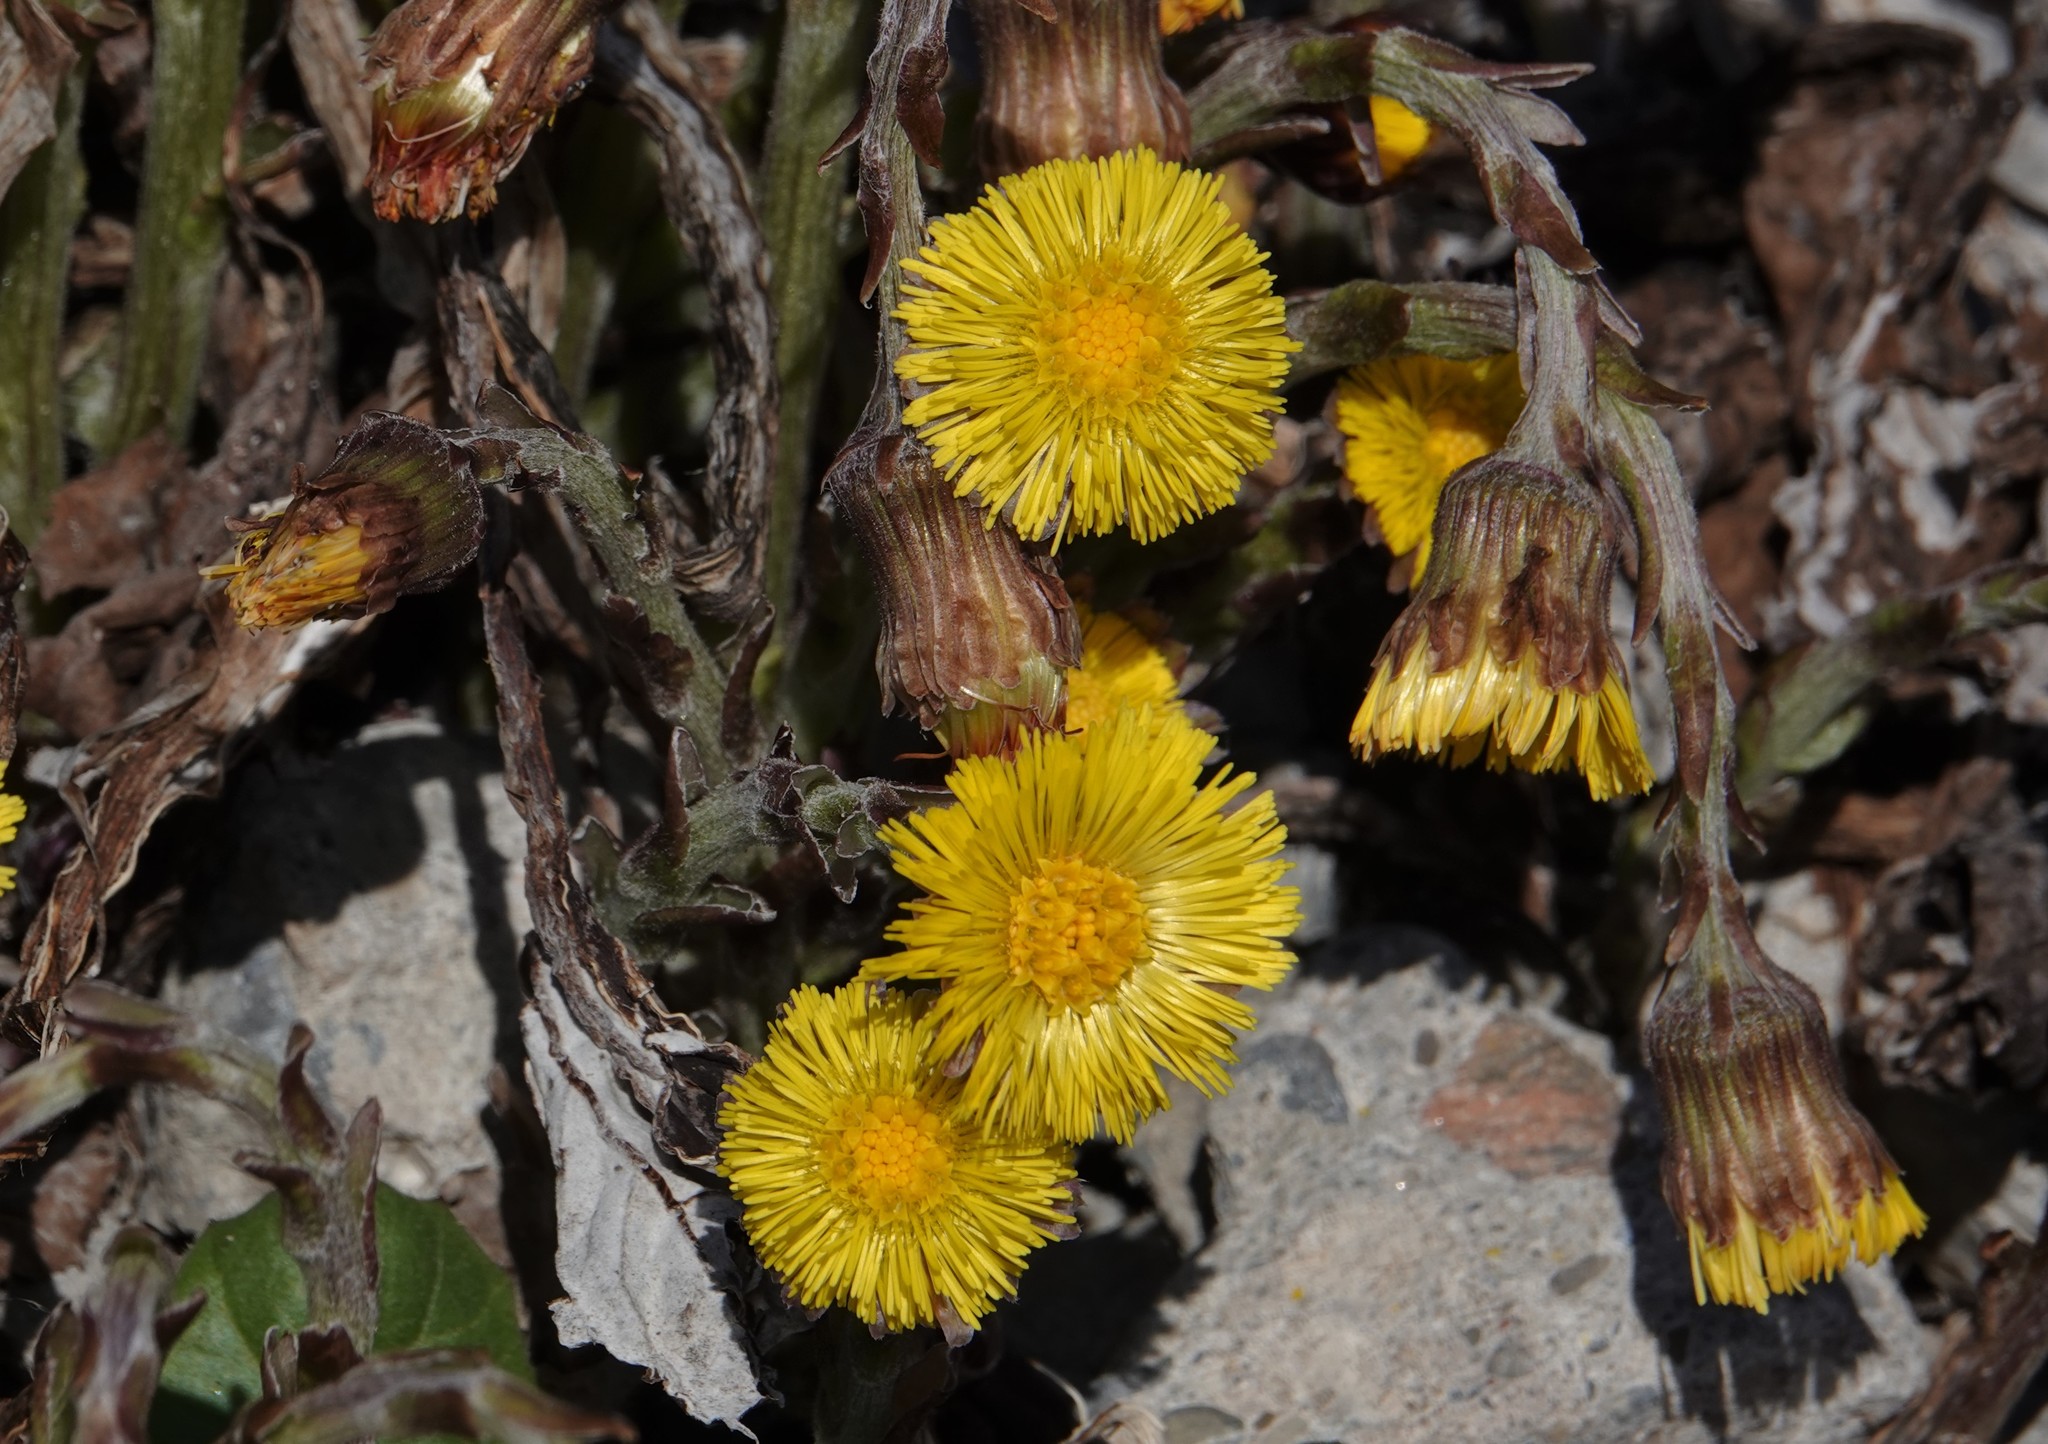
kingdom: Plantae
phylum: Tracheophyta
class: Magnoliopsida
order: Asterales
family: Asteraceae
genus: Tussilago
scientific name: Tussilago farfara
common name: Coltsfoot
